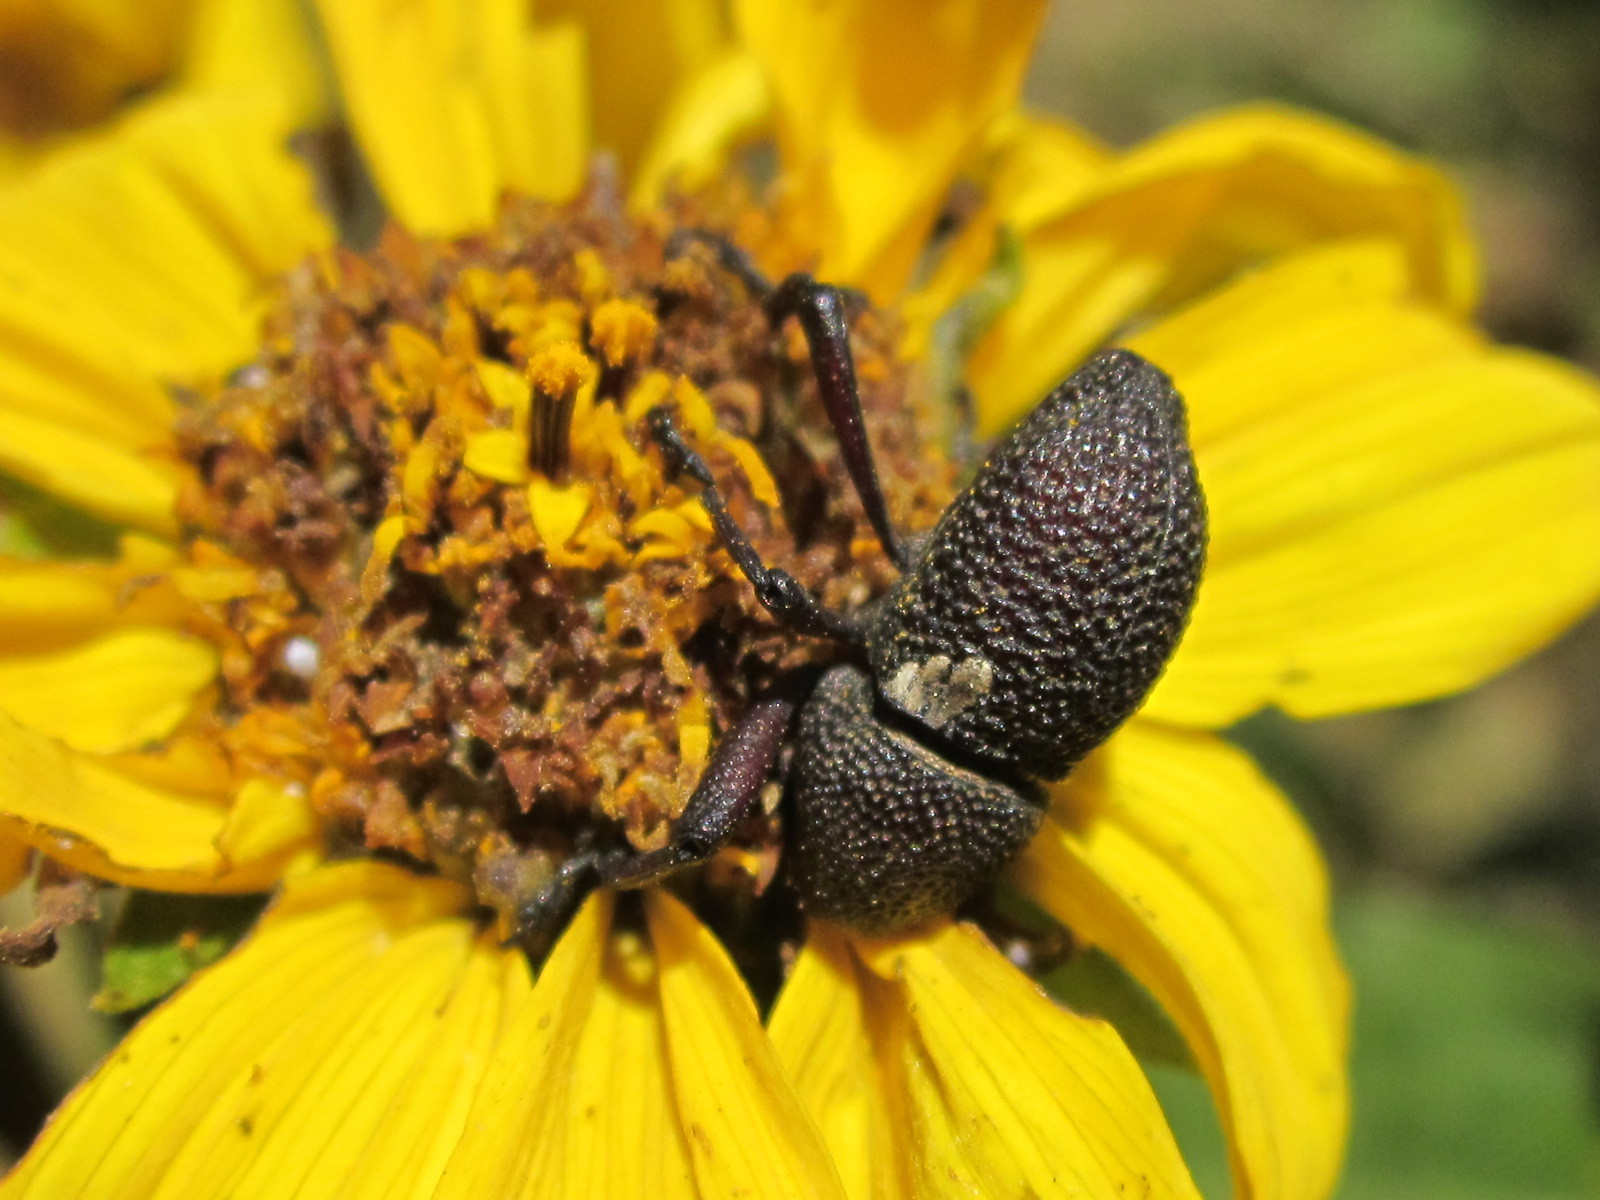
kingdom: Animalia
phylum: Arthropoda
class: Insecta
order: Coleoptera
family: Curculionidae
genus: Rhyephenes
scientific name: Rhyephenes gayi
